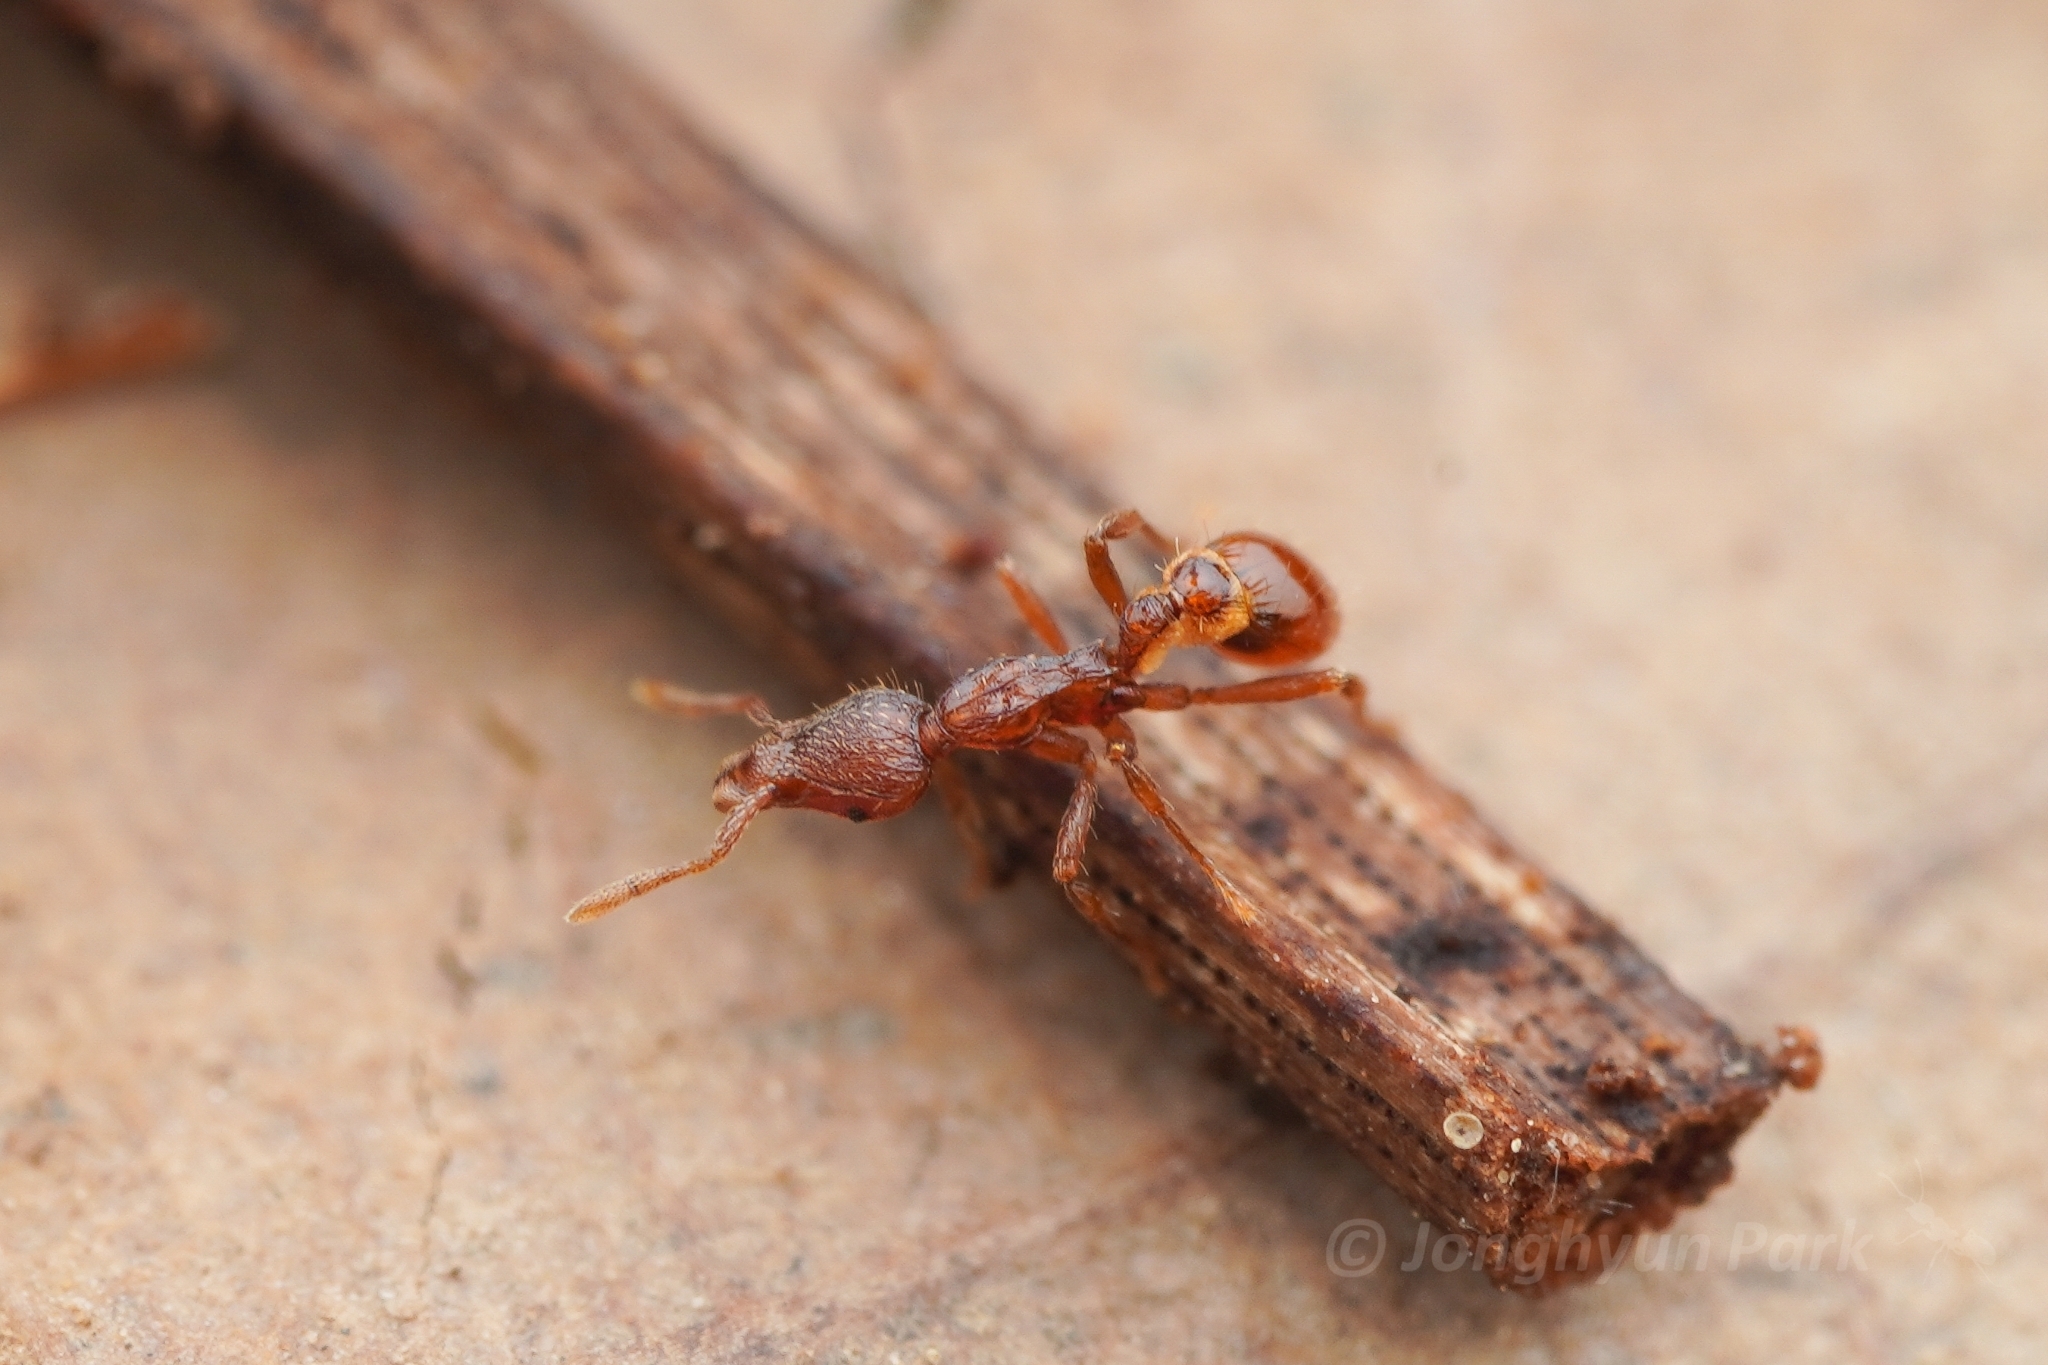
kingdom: Animalia
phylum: Arthropoda
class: Insecta
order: Hymenoptera
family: Formicidae
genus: Strumigenys
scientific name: Strumigenys
